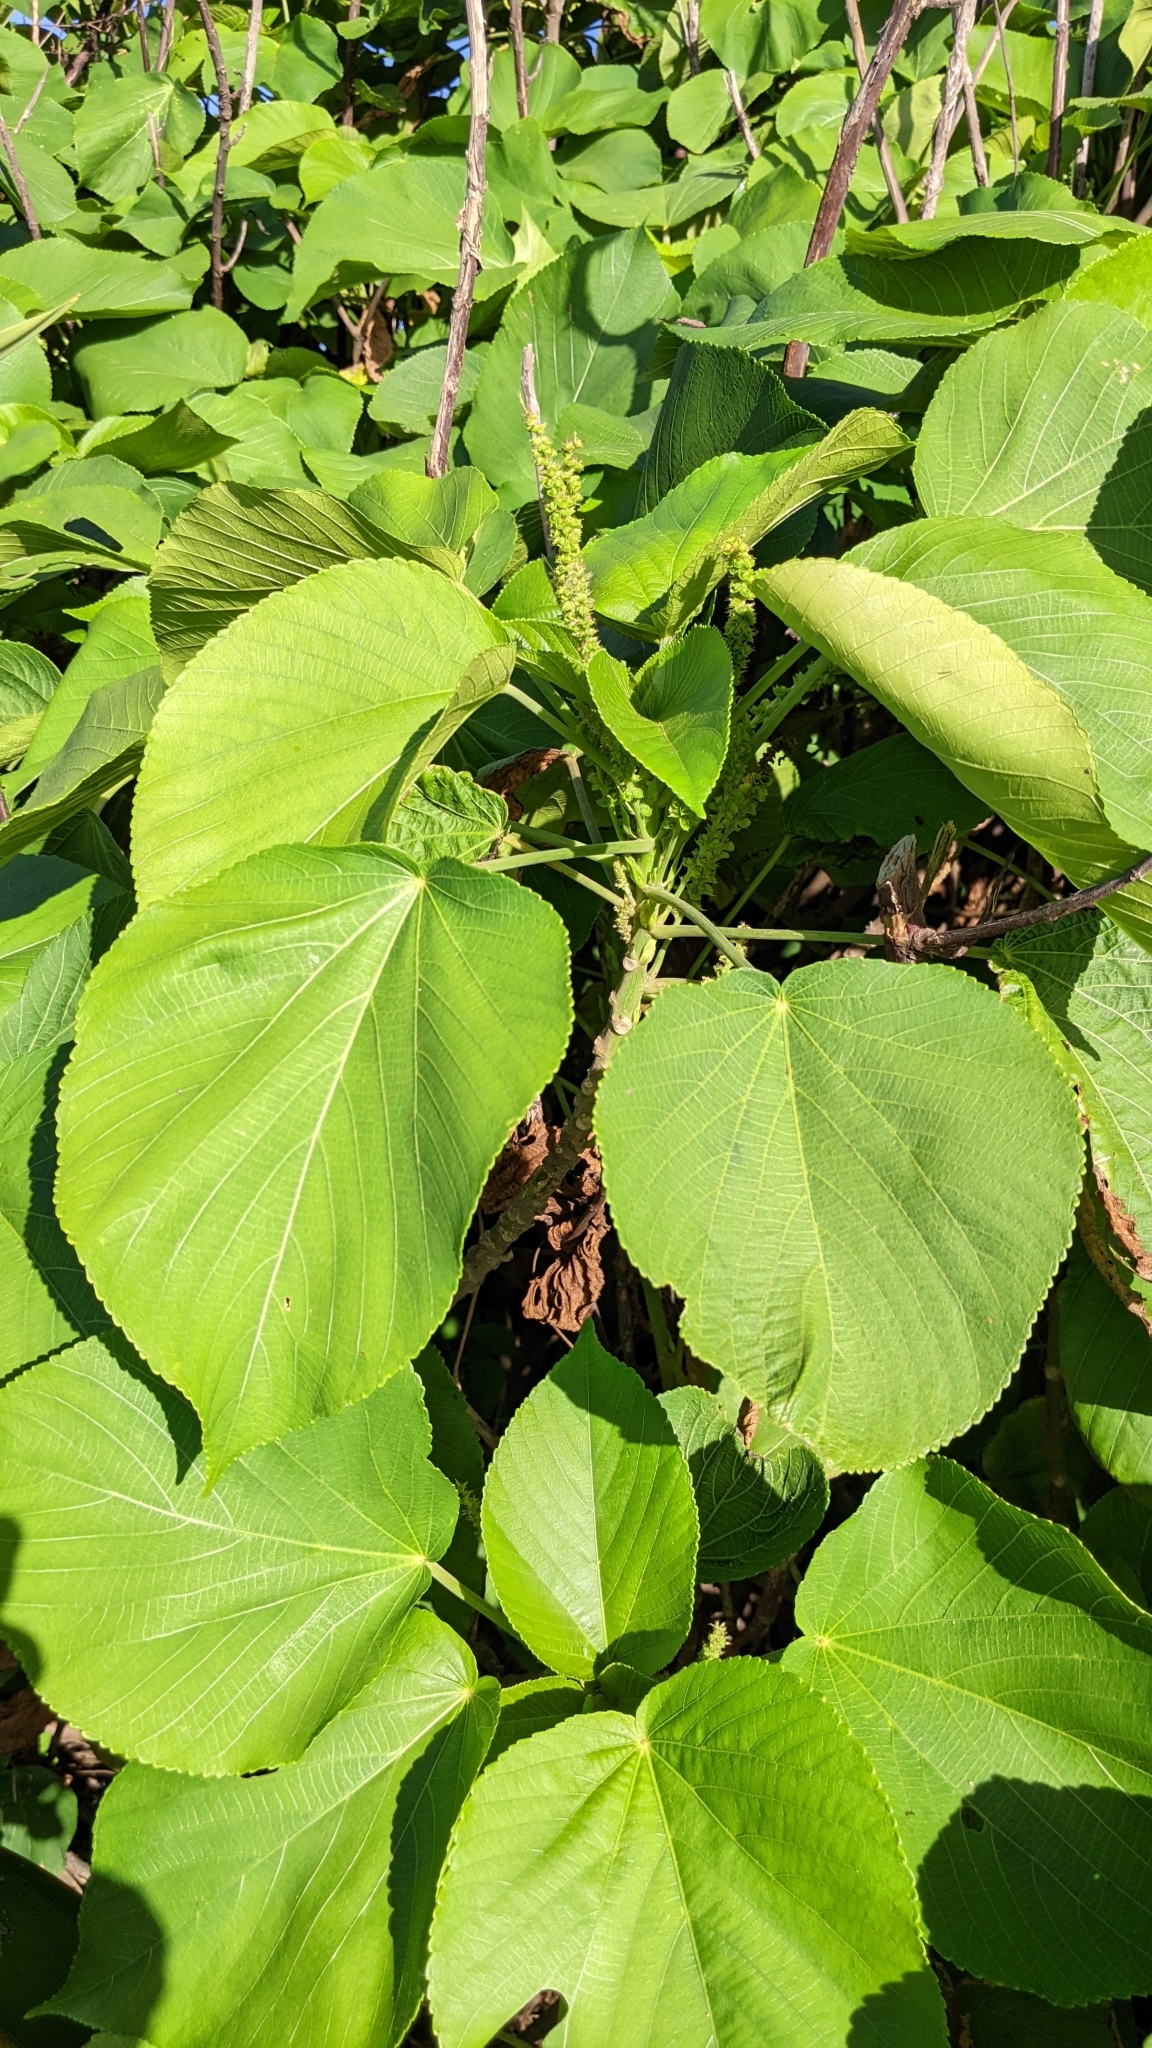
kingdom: Plantae
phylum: Tracheophyta
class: Magnoliopsida
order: Malpighiales
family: Euphorbiaceae
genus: Acalypha
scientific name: Acalypha grandibracteata
